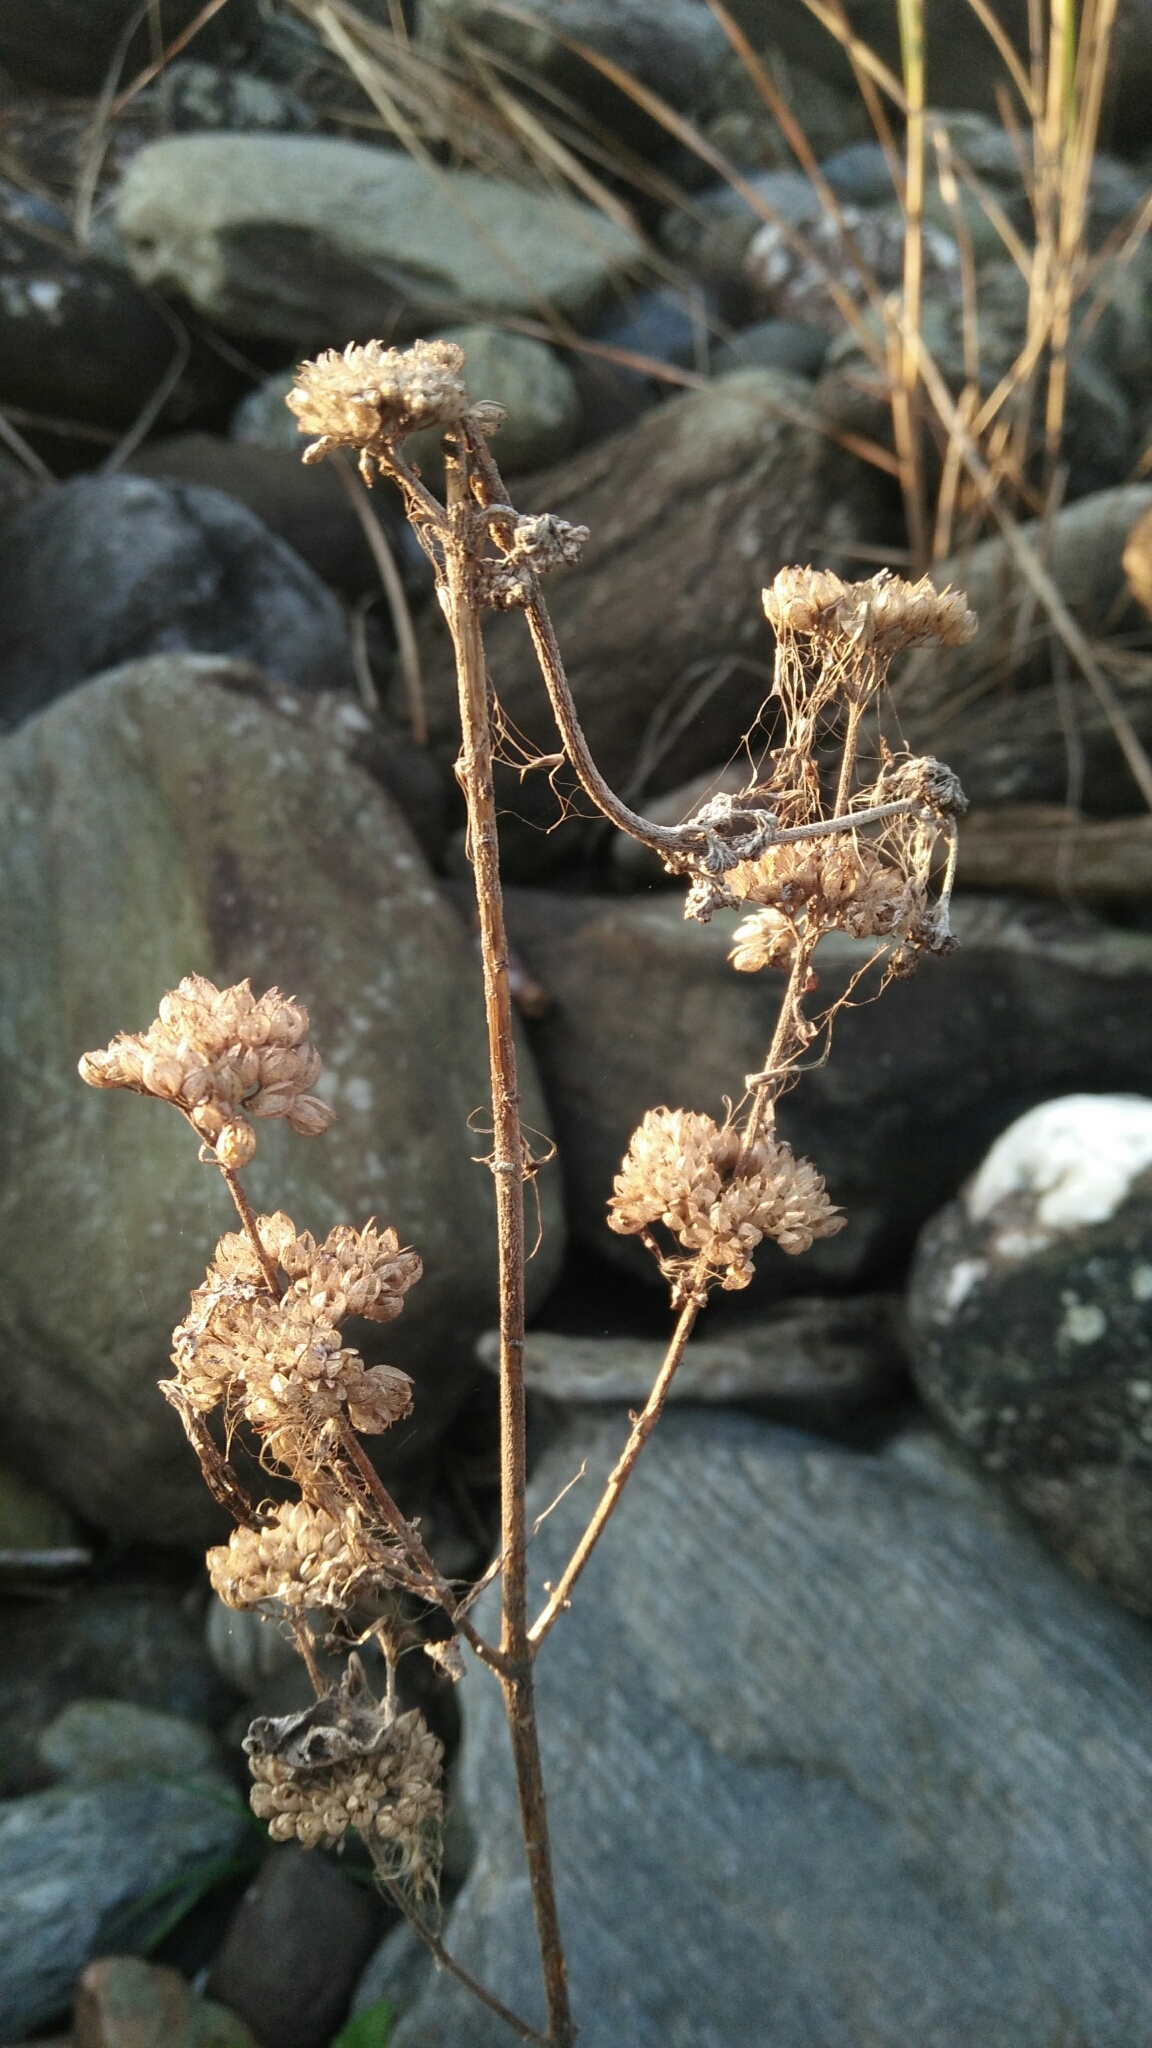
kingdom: Plantae
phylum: Tracheophyta
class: Magnoliopsida
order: Lamiales
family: Lamiaceae
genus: Caryopteris
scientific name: Caryopteris incana
